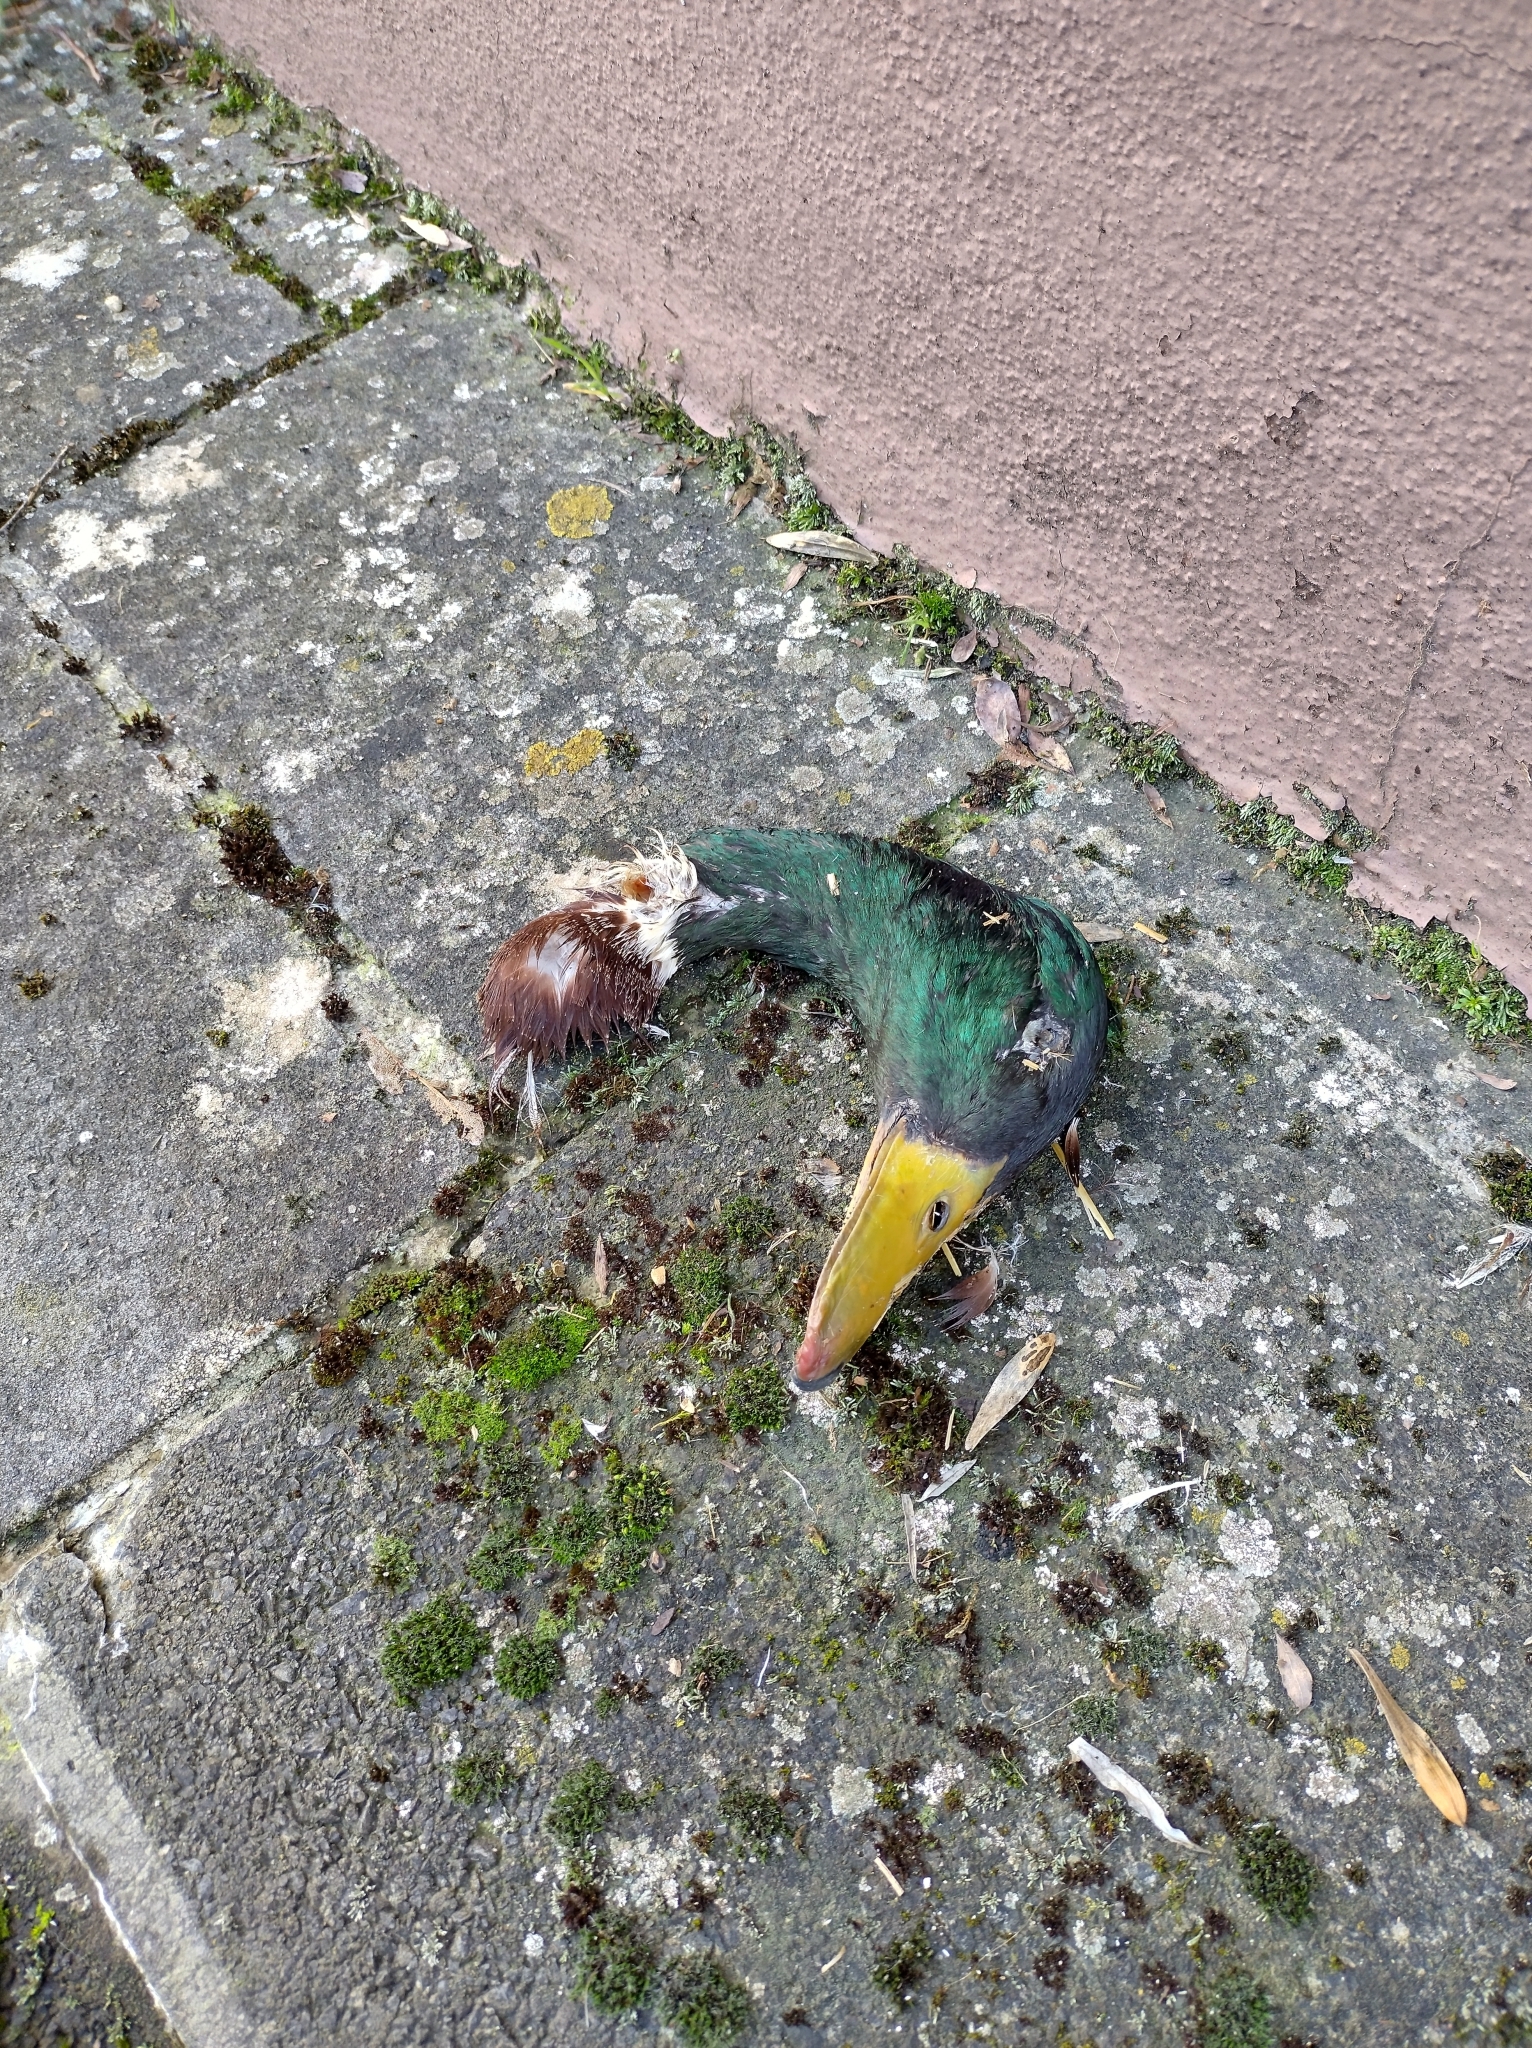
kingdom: Animalia
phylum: Chordata
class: Aves
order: Anseriformes
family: Anatidae
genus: Anas
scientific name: Anas platyrhynchos
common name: Mallard
